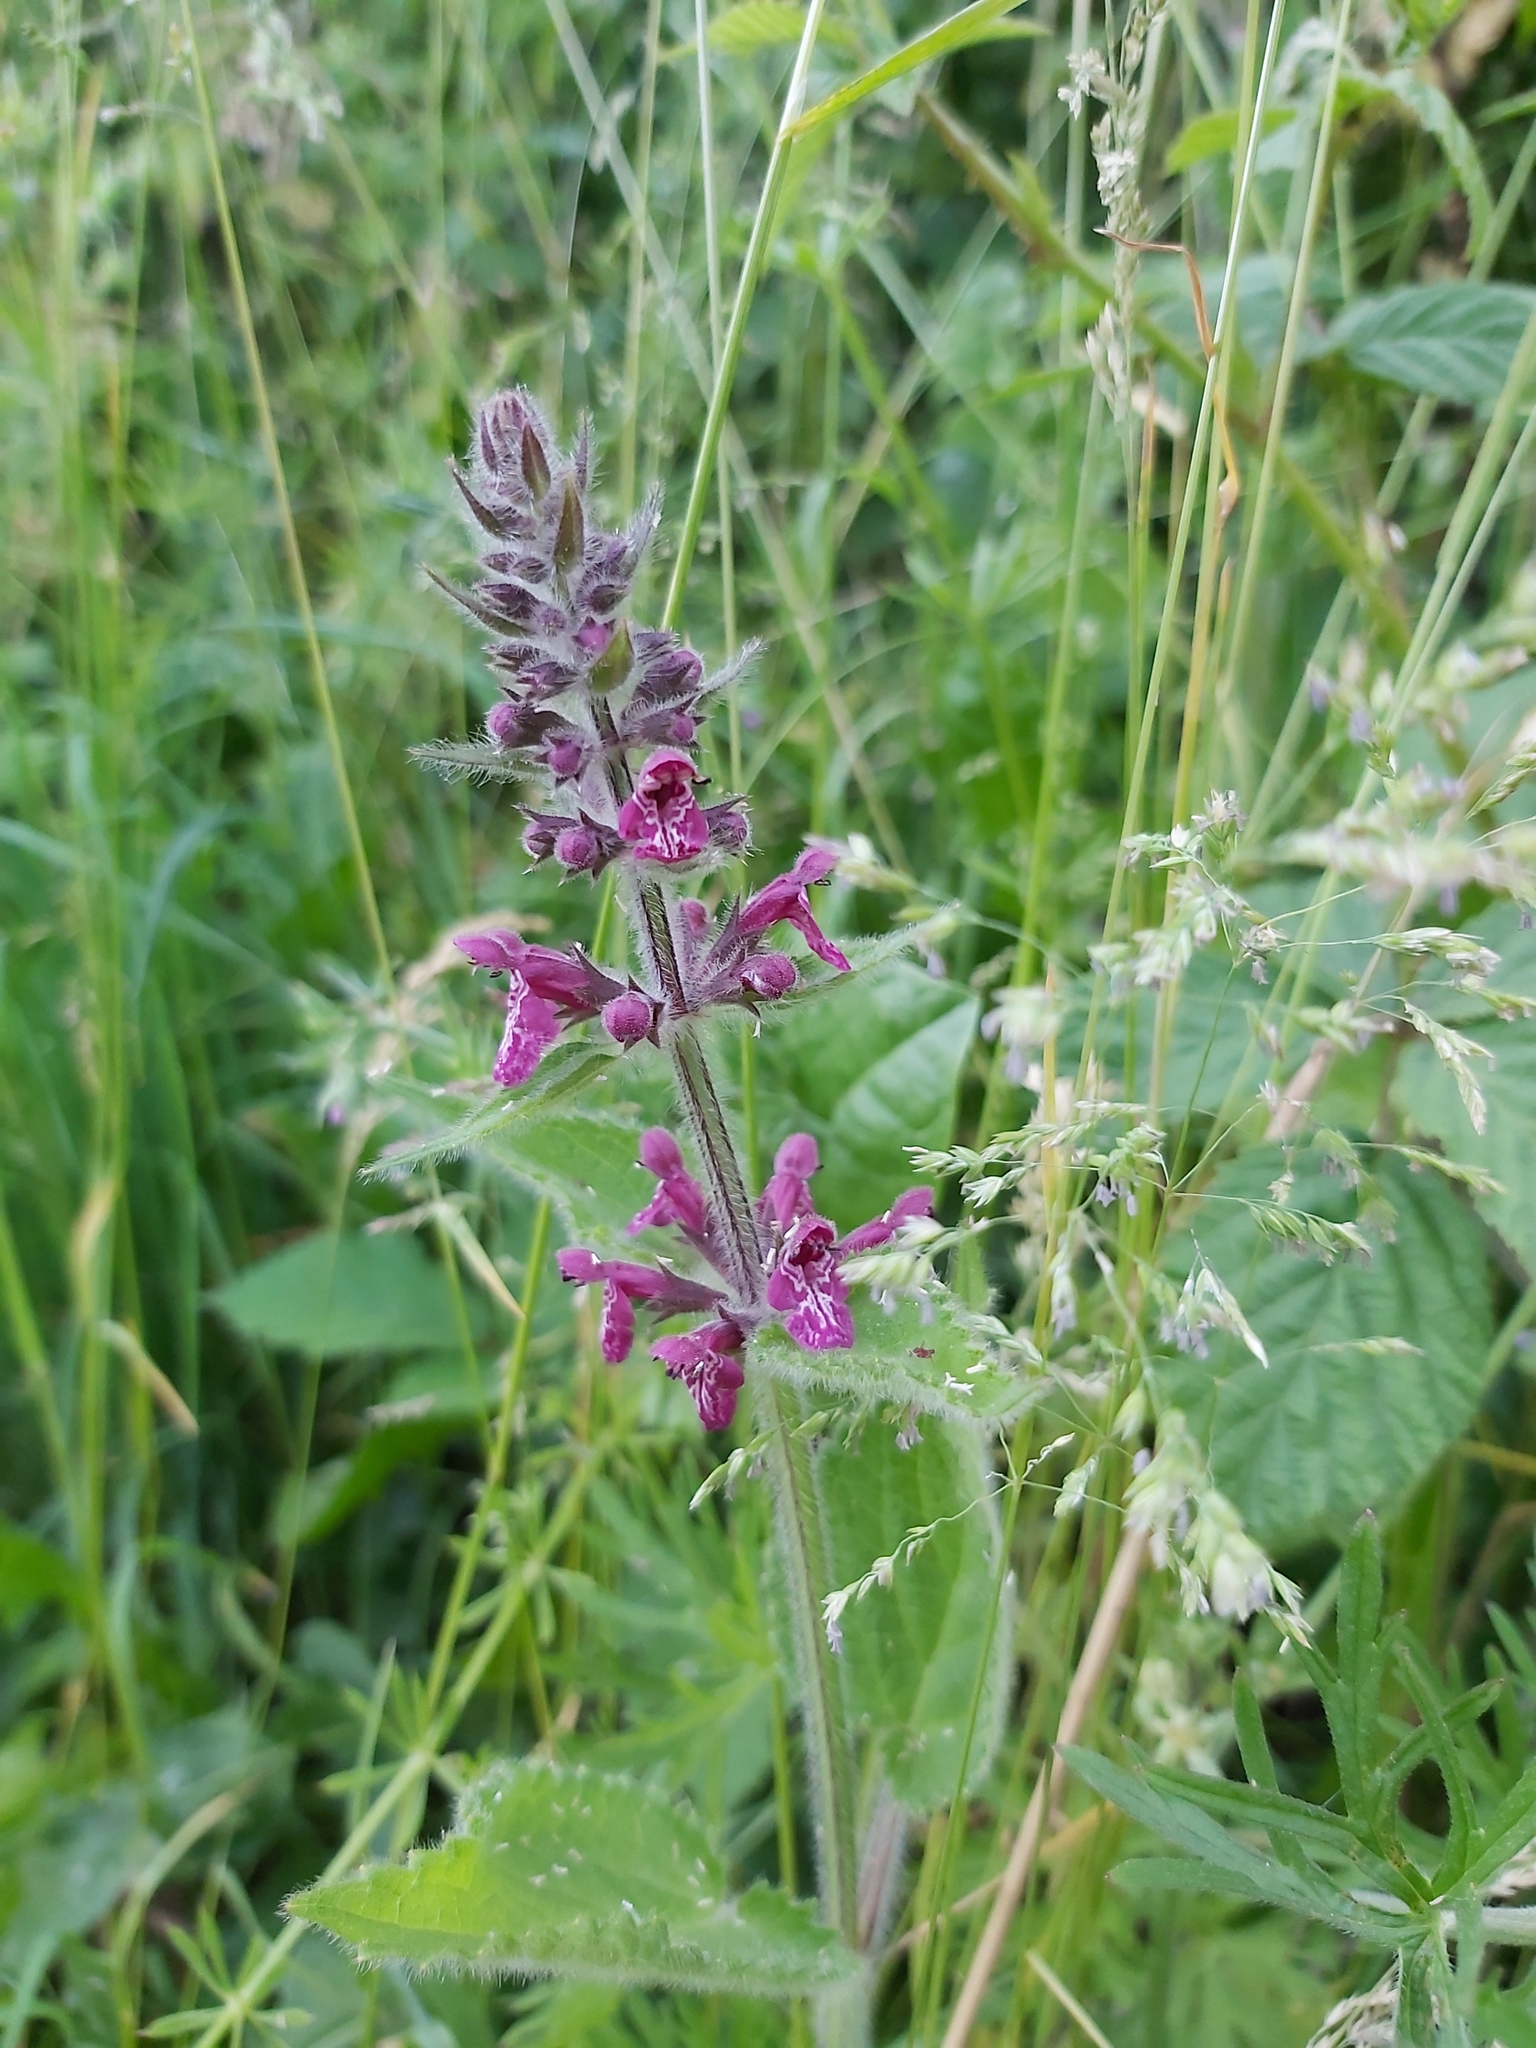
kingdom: Plantae
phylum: Tracheophyta
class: Magnoliopsida
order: Lamiales
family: Lamiaceae
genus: Stachys
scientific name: Stachys sylvatica
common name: Hedge woundwort
